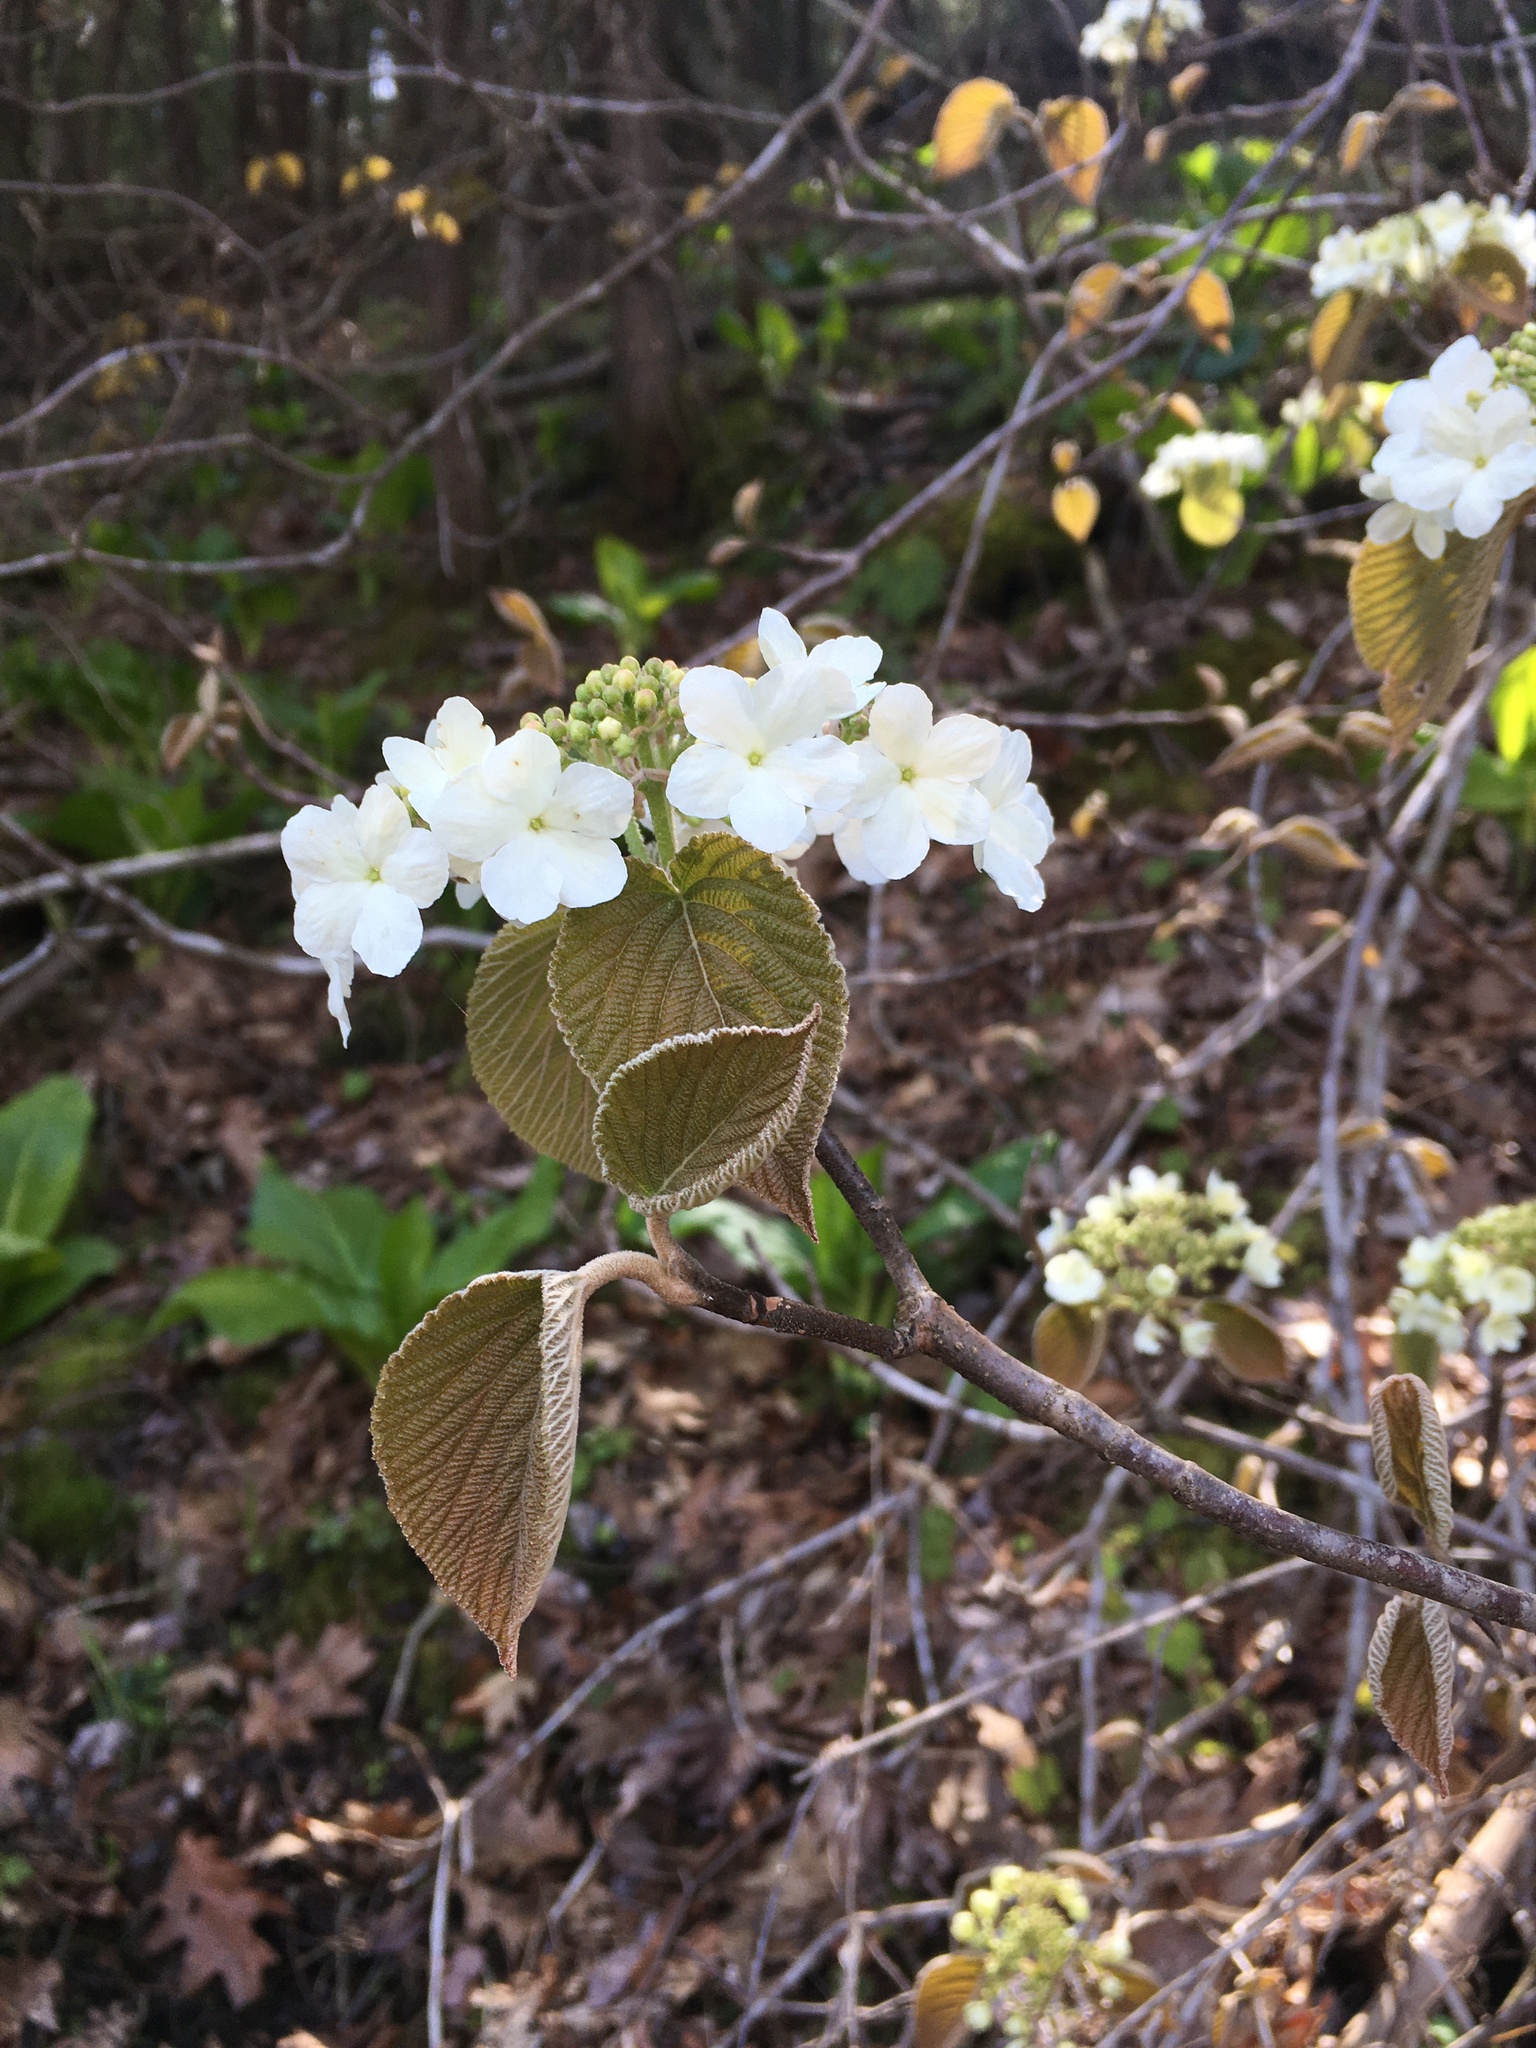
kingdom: Plantae
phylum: Tracheophyta
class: Magnoliopsida
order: Dipsacales
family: Viburnaceae
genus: Viburnum
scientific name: Viburnum lantanoides
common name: Hobblebush
